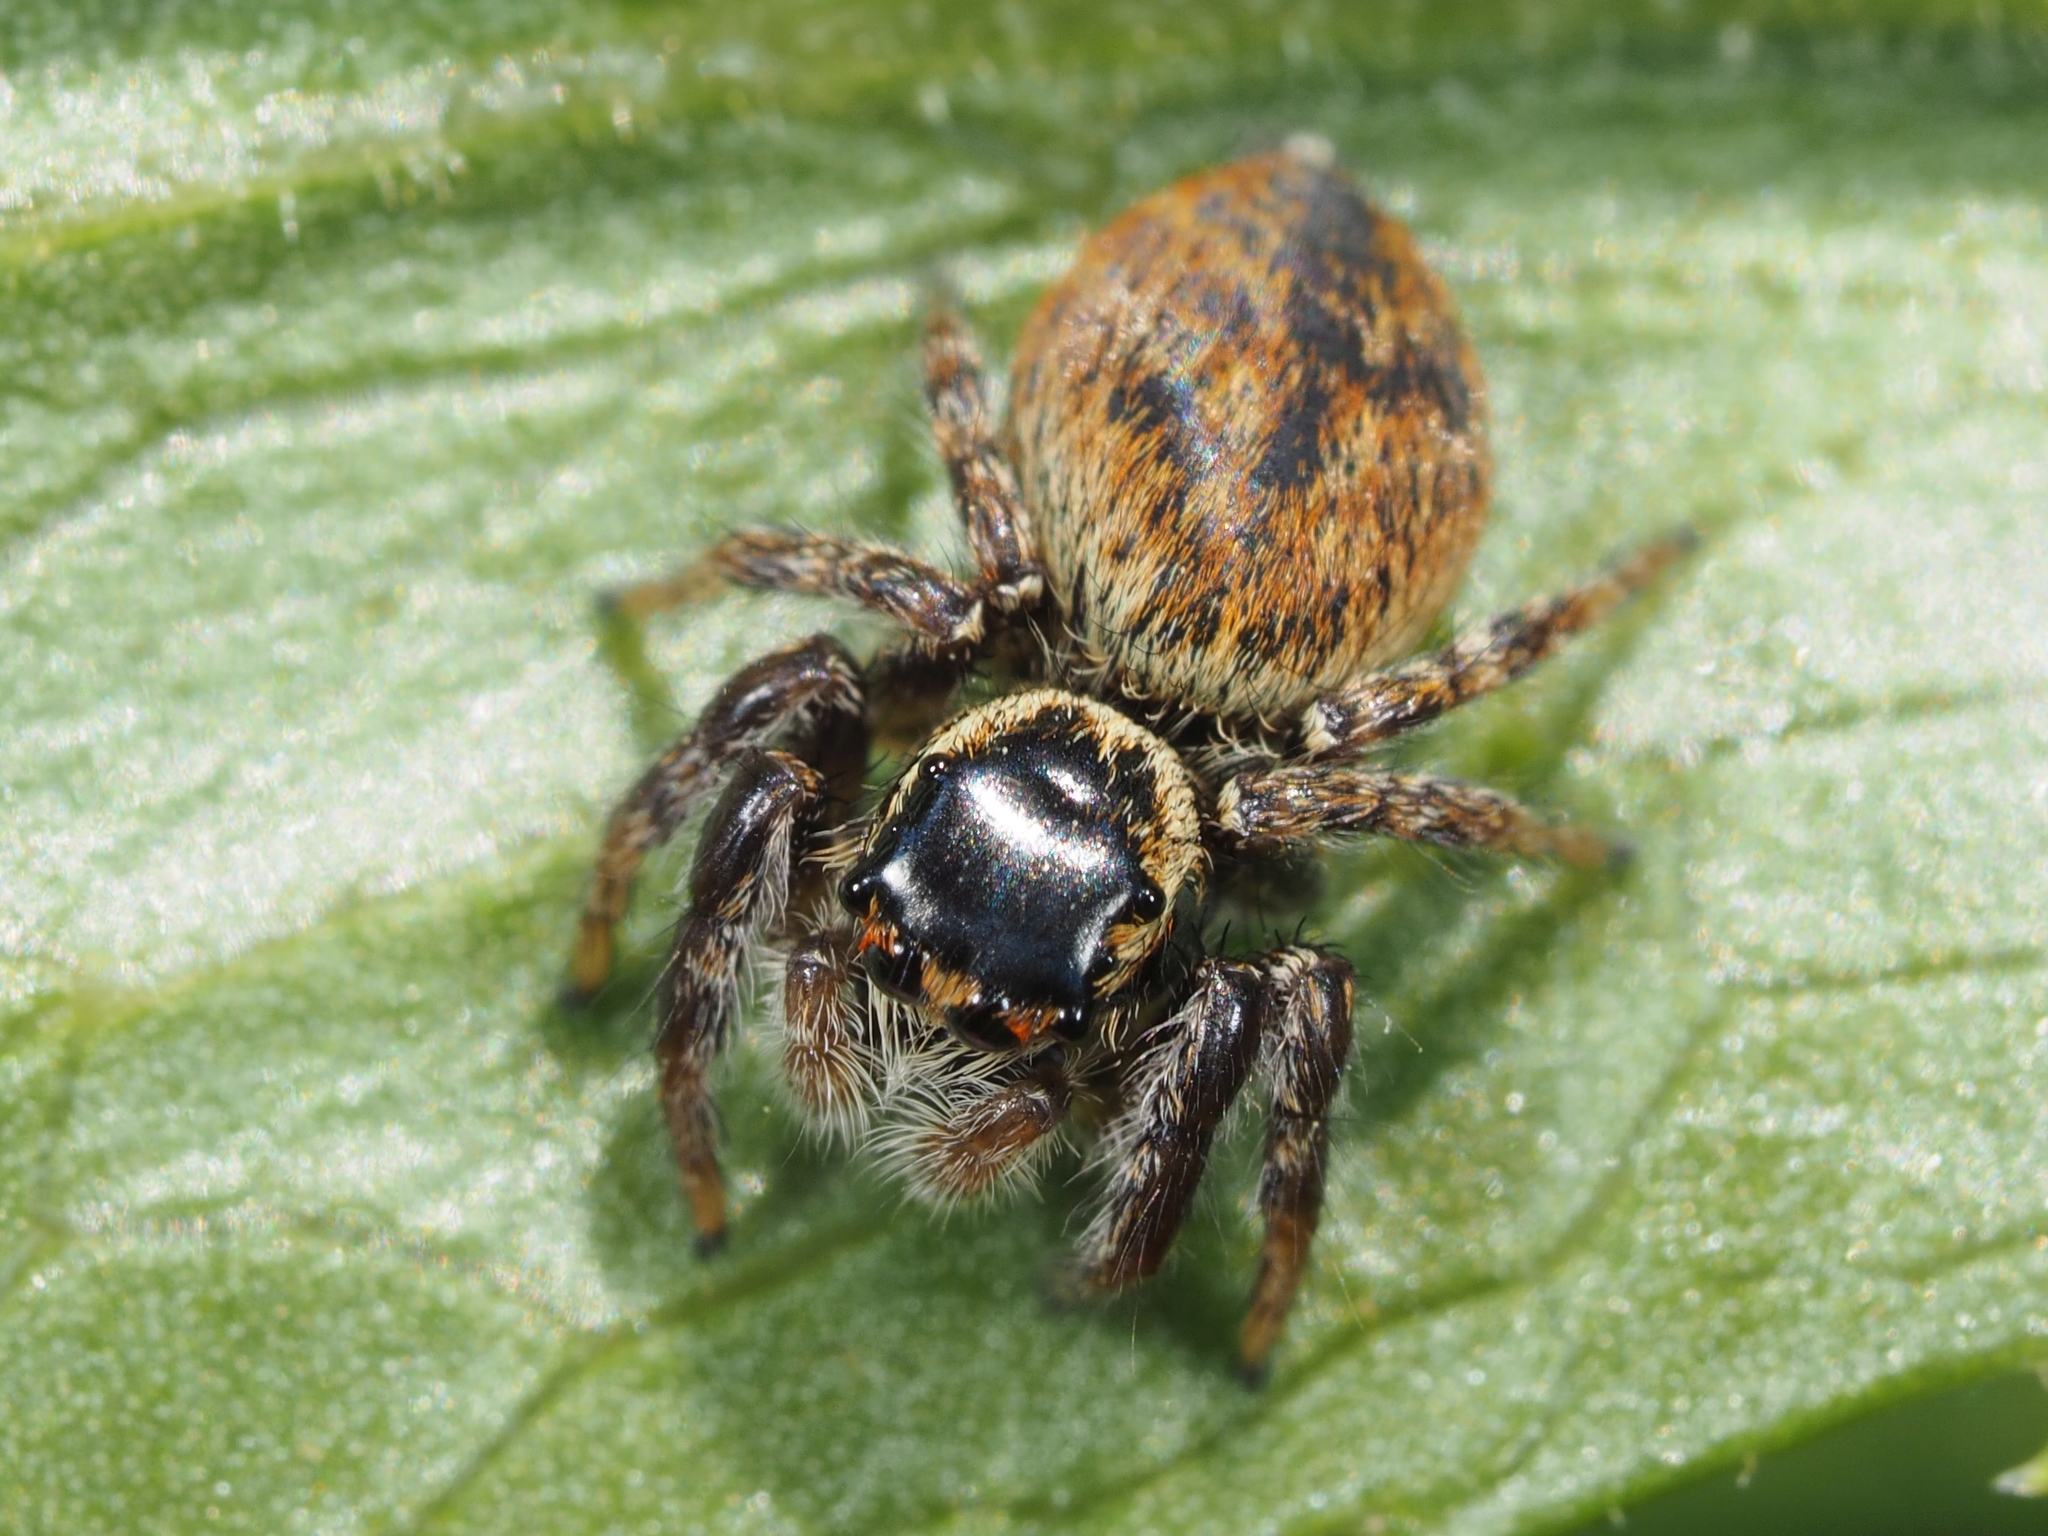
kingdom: Animalia
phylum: Arthropoda
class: Arachnida
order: Araneae
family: Salticidae
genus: Carrhotus
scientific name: Carrhotus xanthogramma
